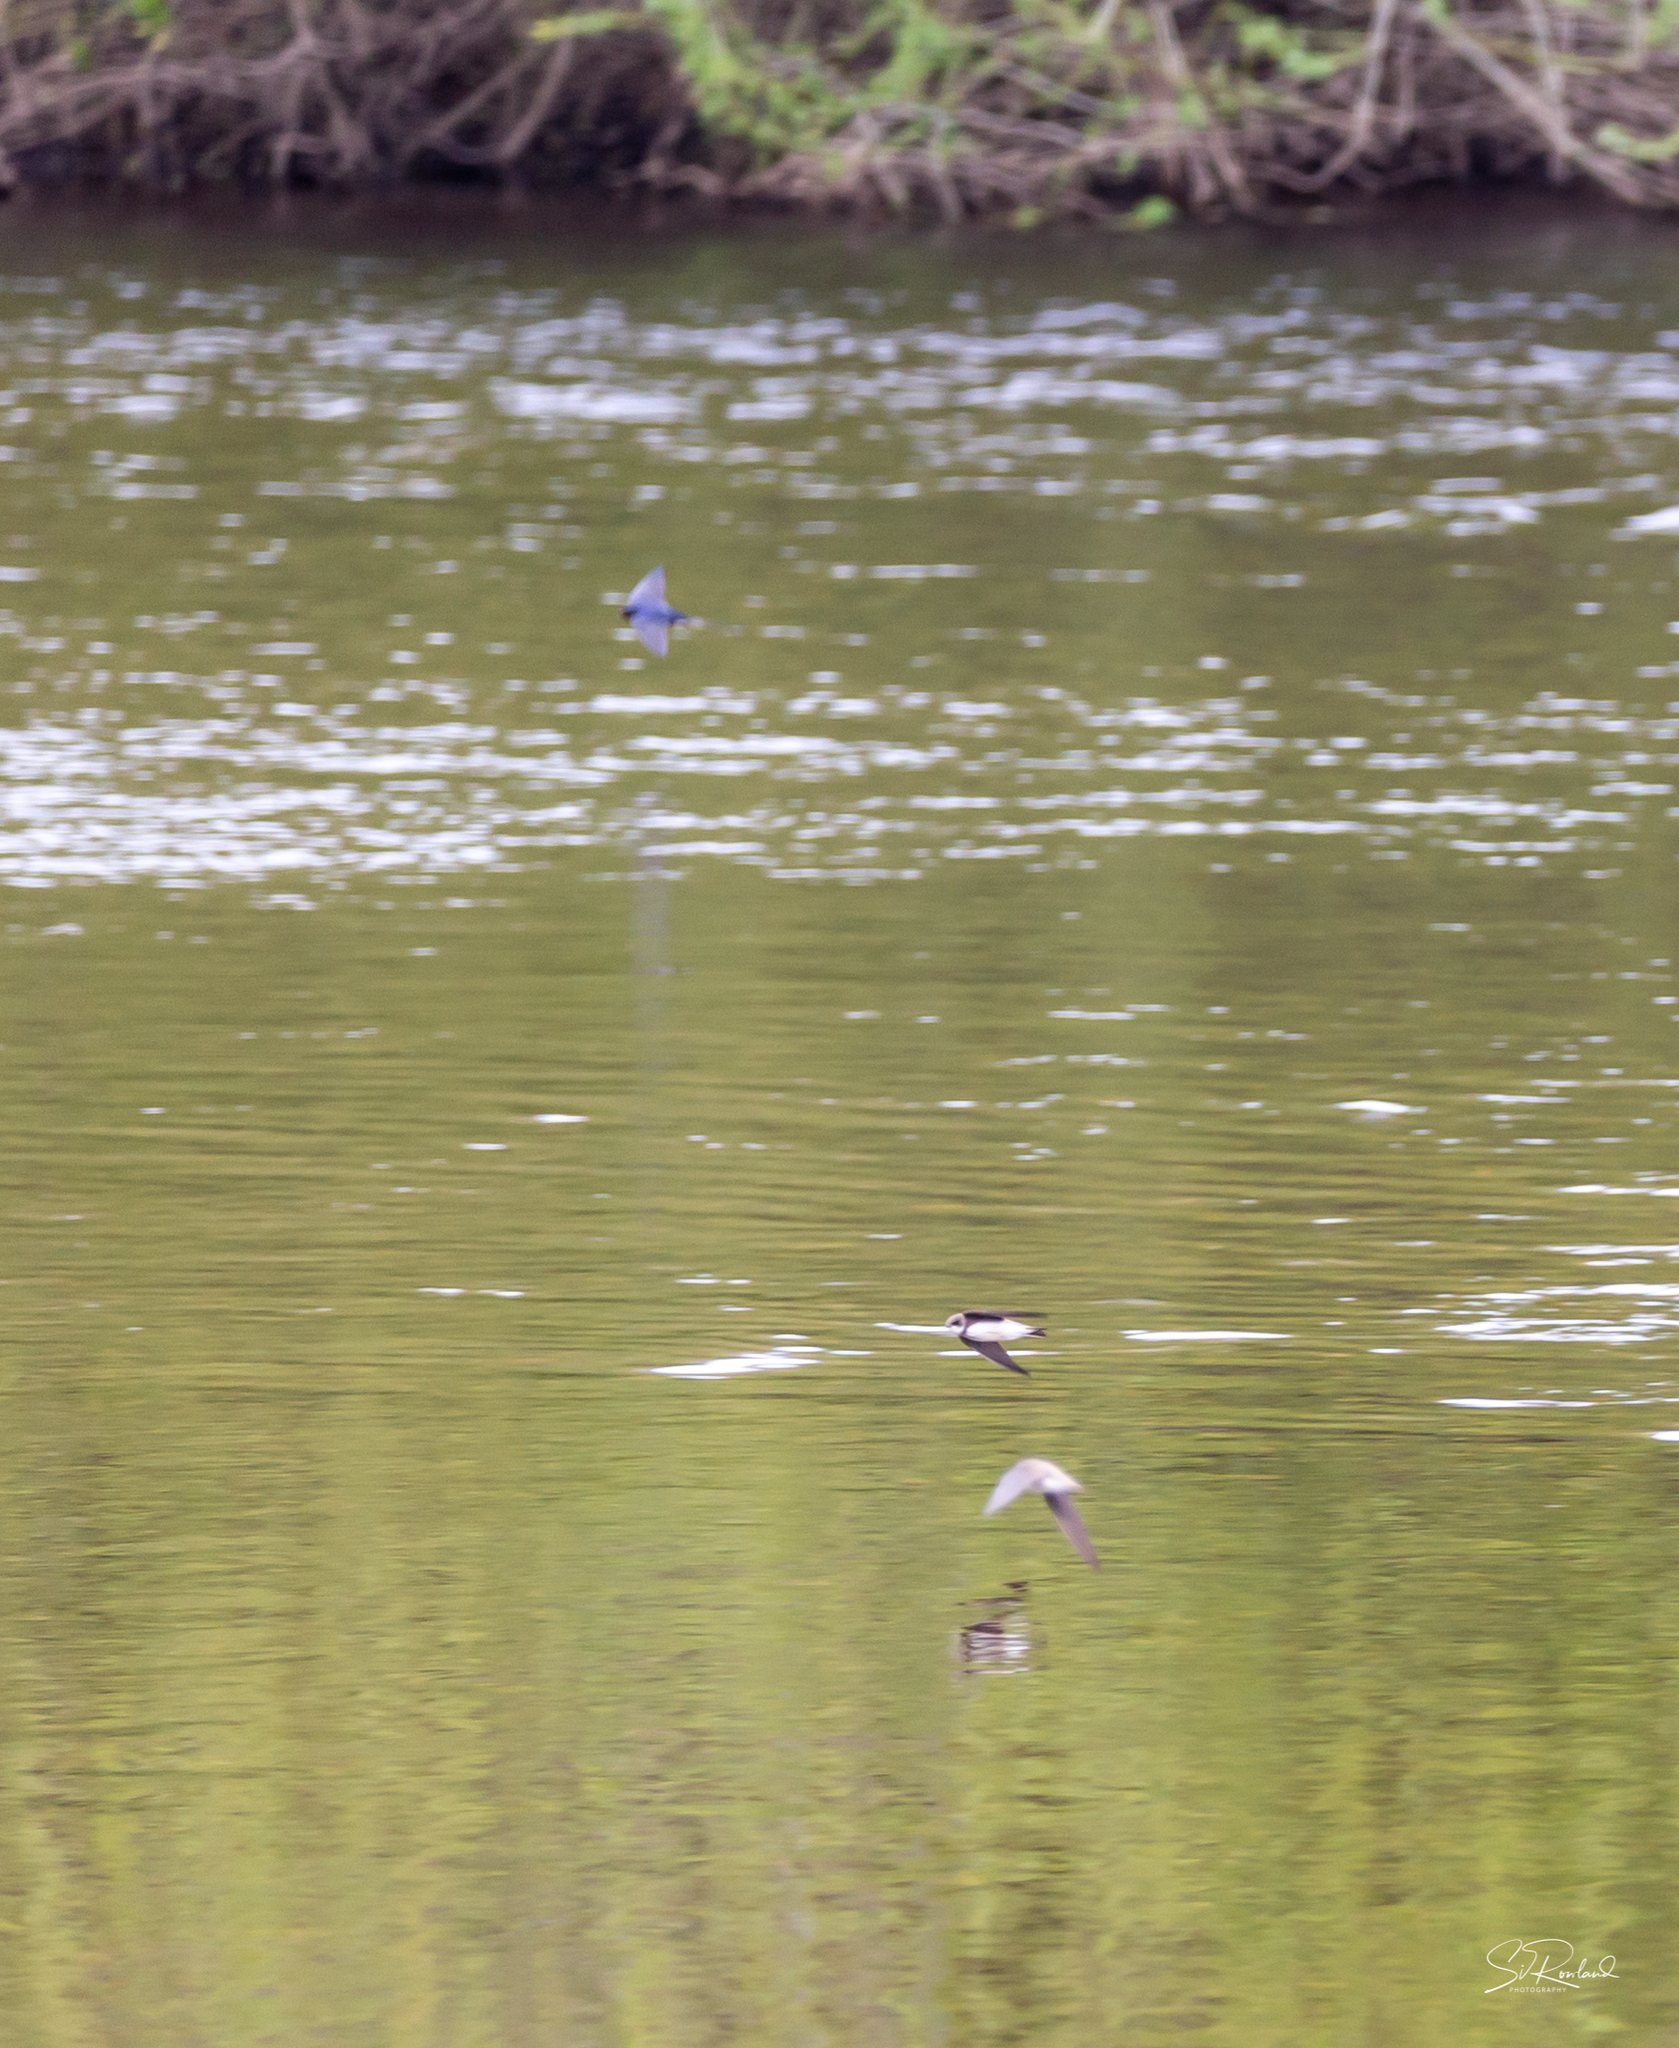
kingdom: Animalia
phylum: Chordata
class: Aves
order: Passeriformes
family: Hirundinidae
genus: Riparia
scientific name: Riparia riparia
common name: Sand martin
